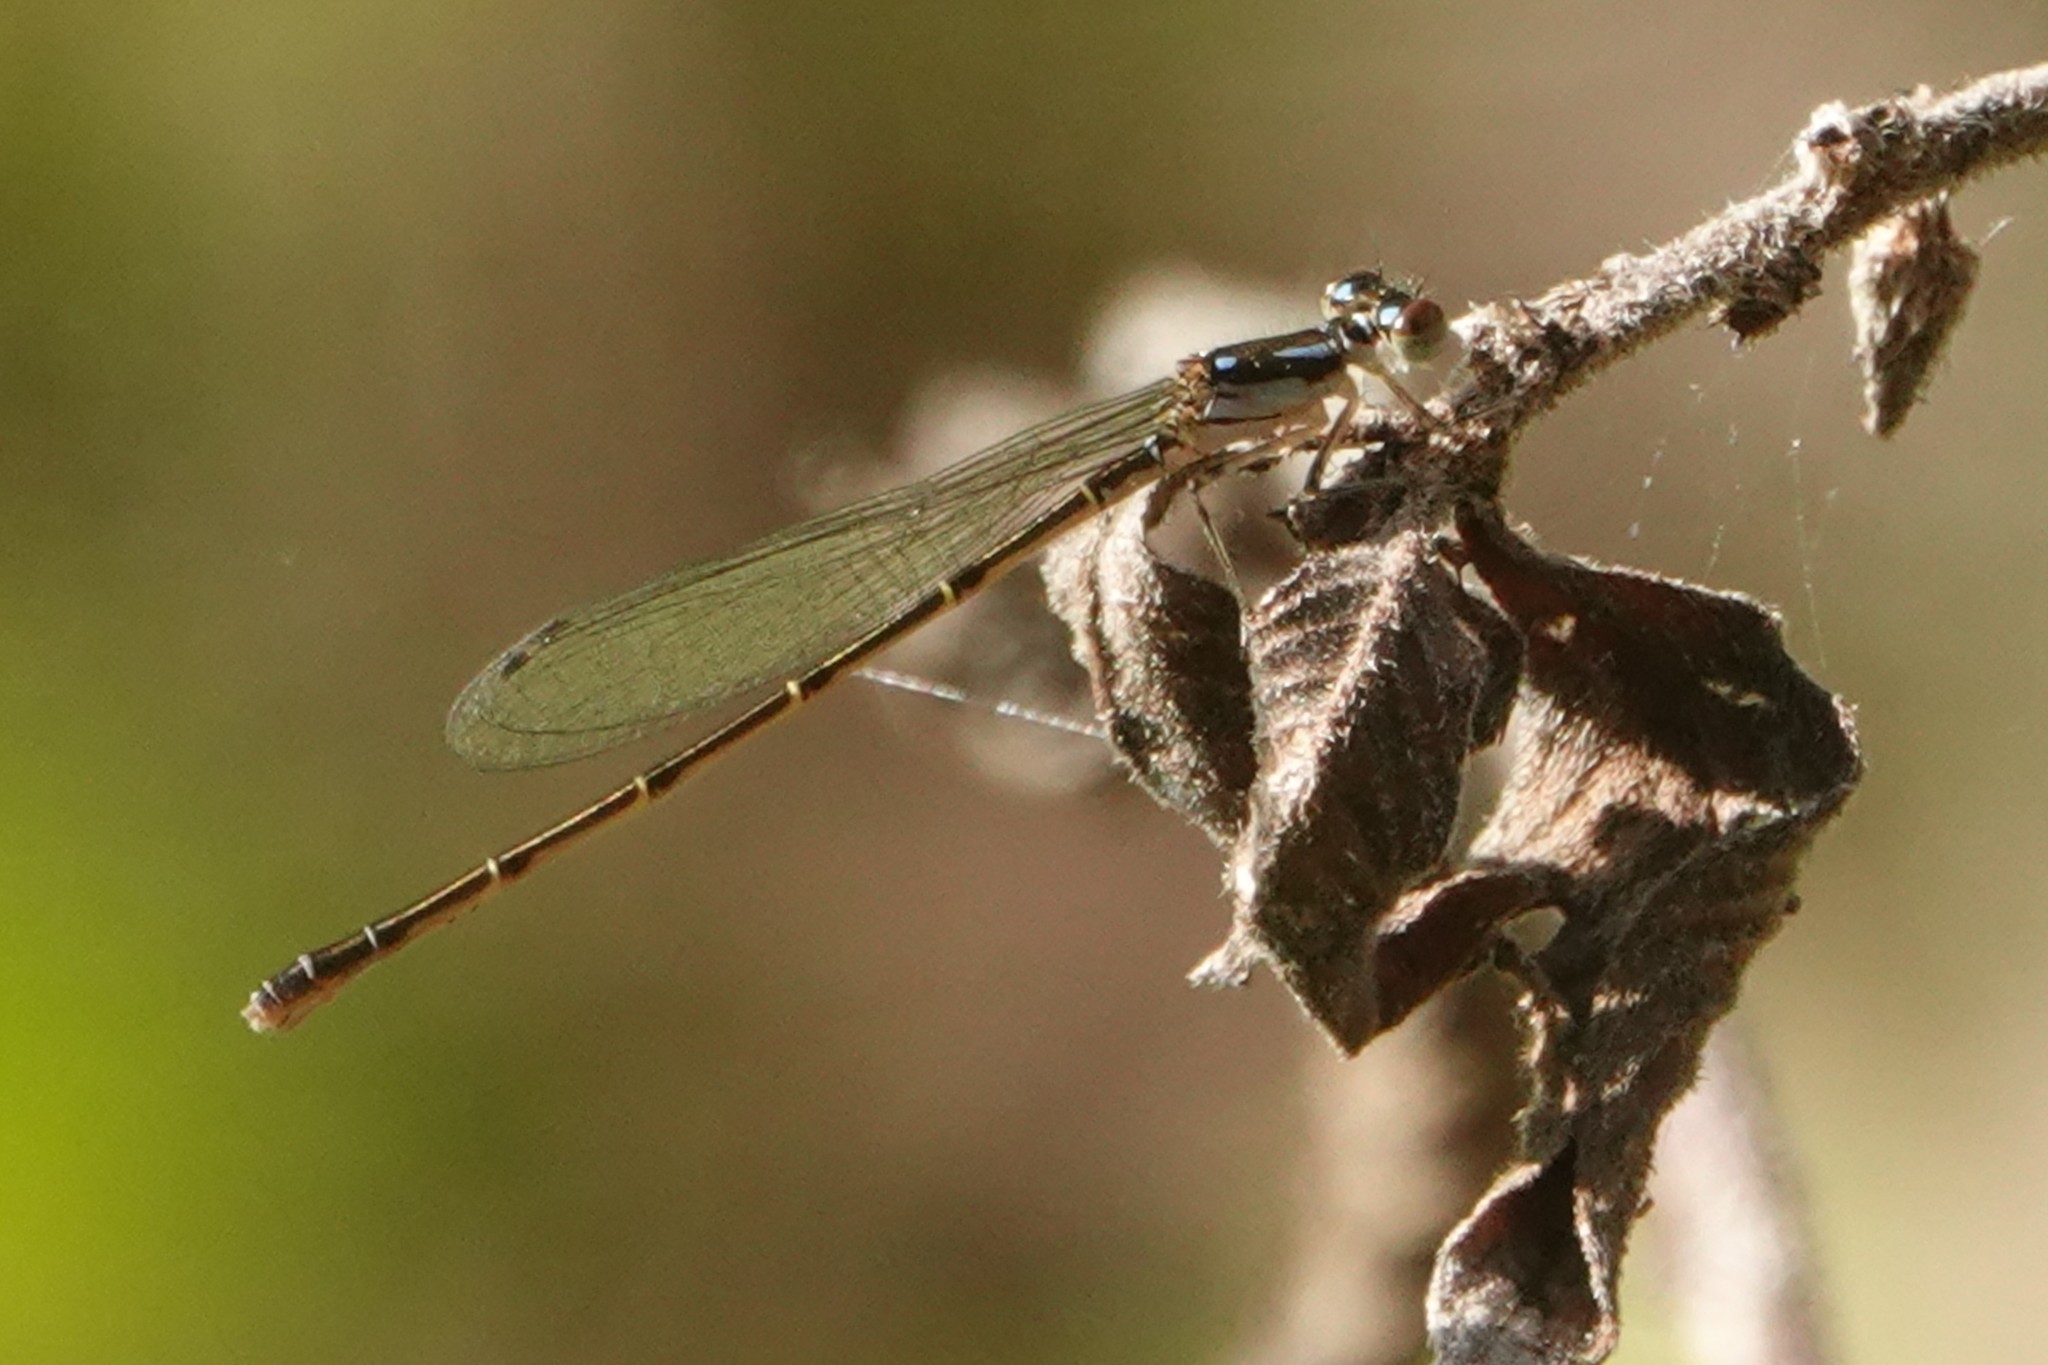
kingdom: Animalia
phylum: Arthropoda
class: Insecta
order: Odonata
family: Coenagrionidae
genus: Ischnura
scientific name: Ischnura posita
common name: Fragile forktail
